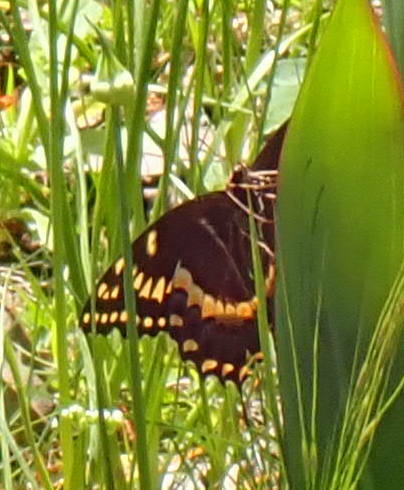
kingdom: Animalia
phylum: Arthropoda
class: Insecta
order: Lepidoptera
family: Papilionidae
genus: Papilio
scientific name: Papilio palamedes
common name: Palamedes swallowtail
